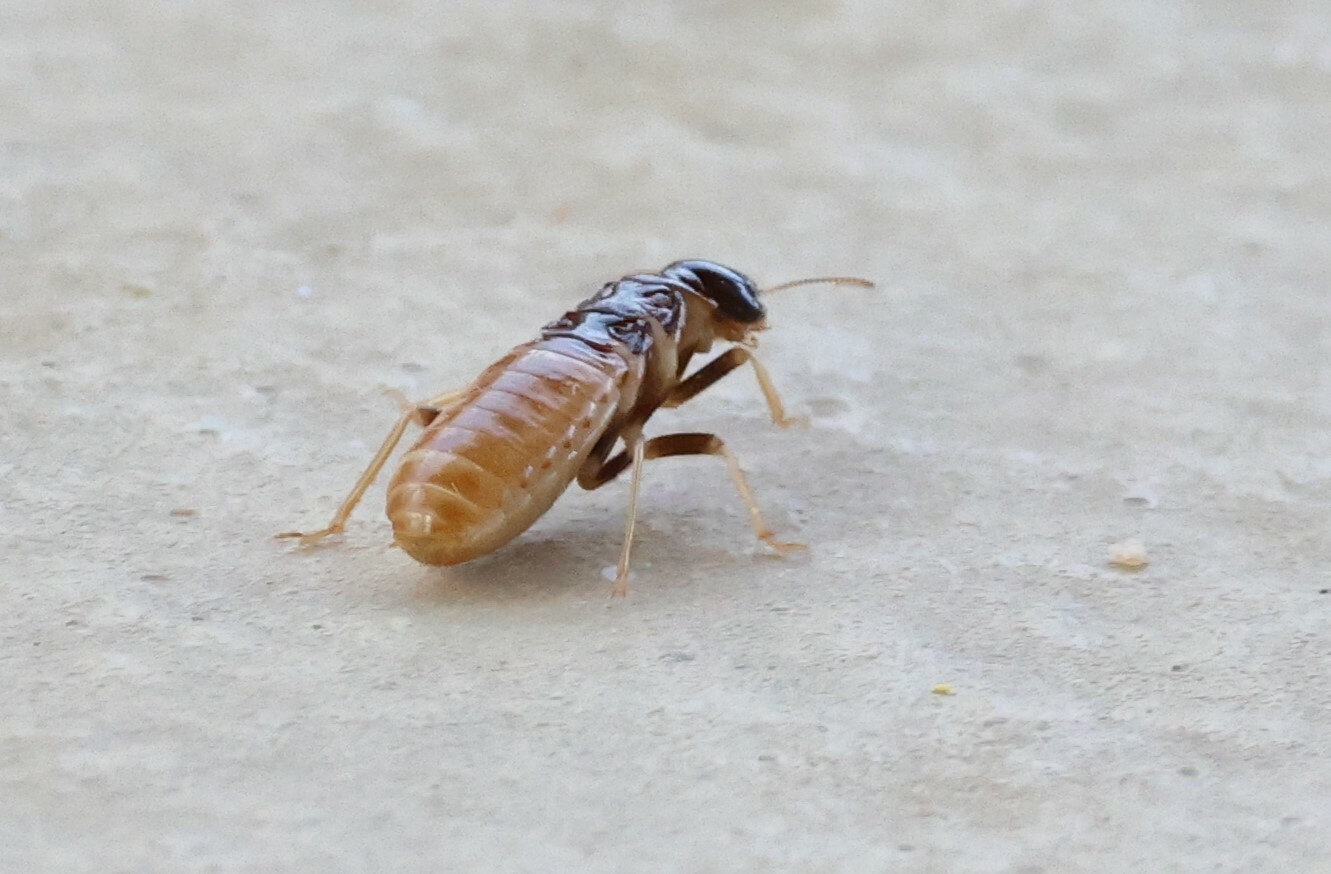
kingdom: Animalia
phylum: Arthropoda
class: Insecta
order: Blattodea
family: Hodotermitidae
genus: Hodotermes
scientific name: Hodotermes mossambicus
